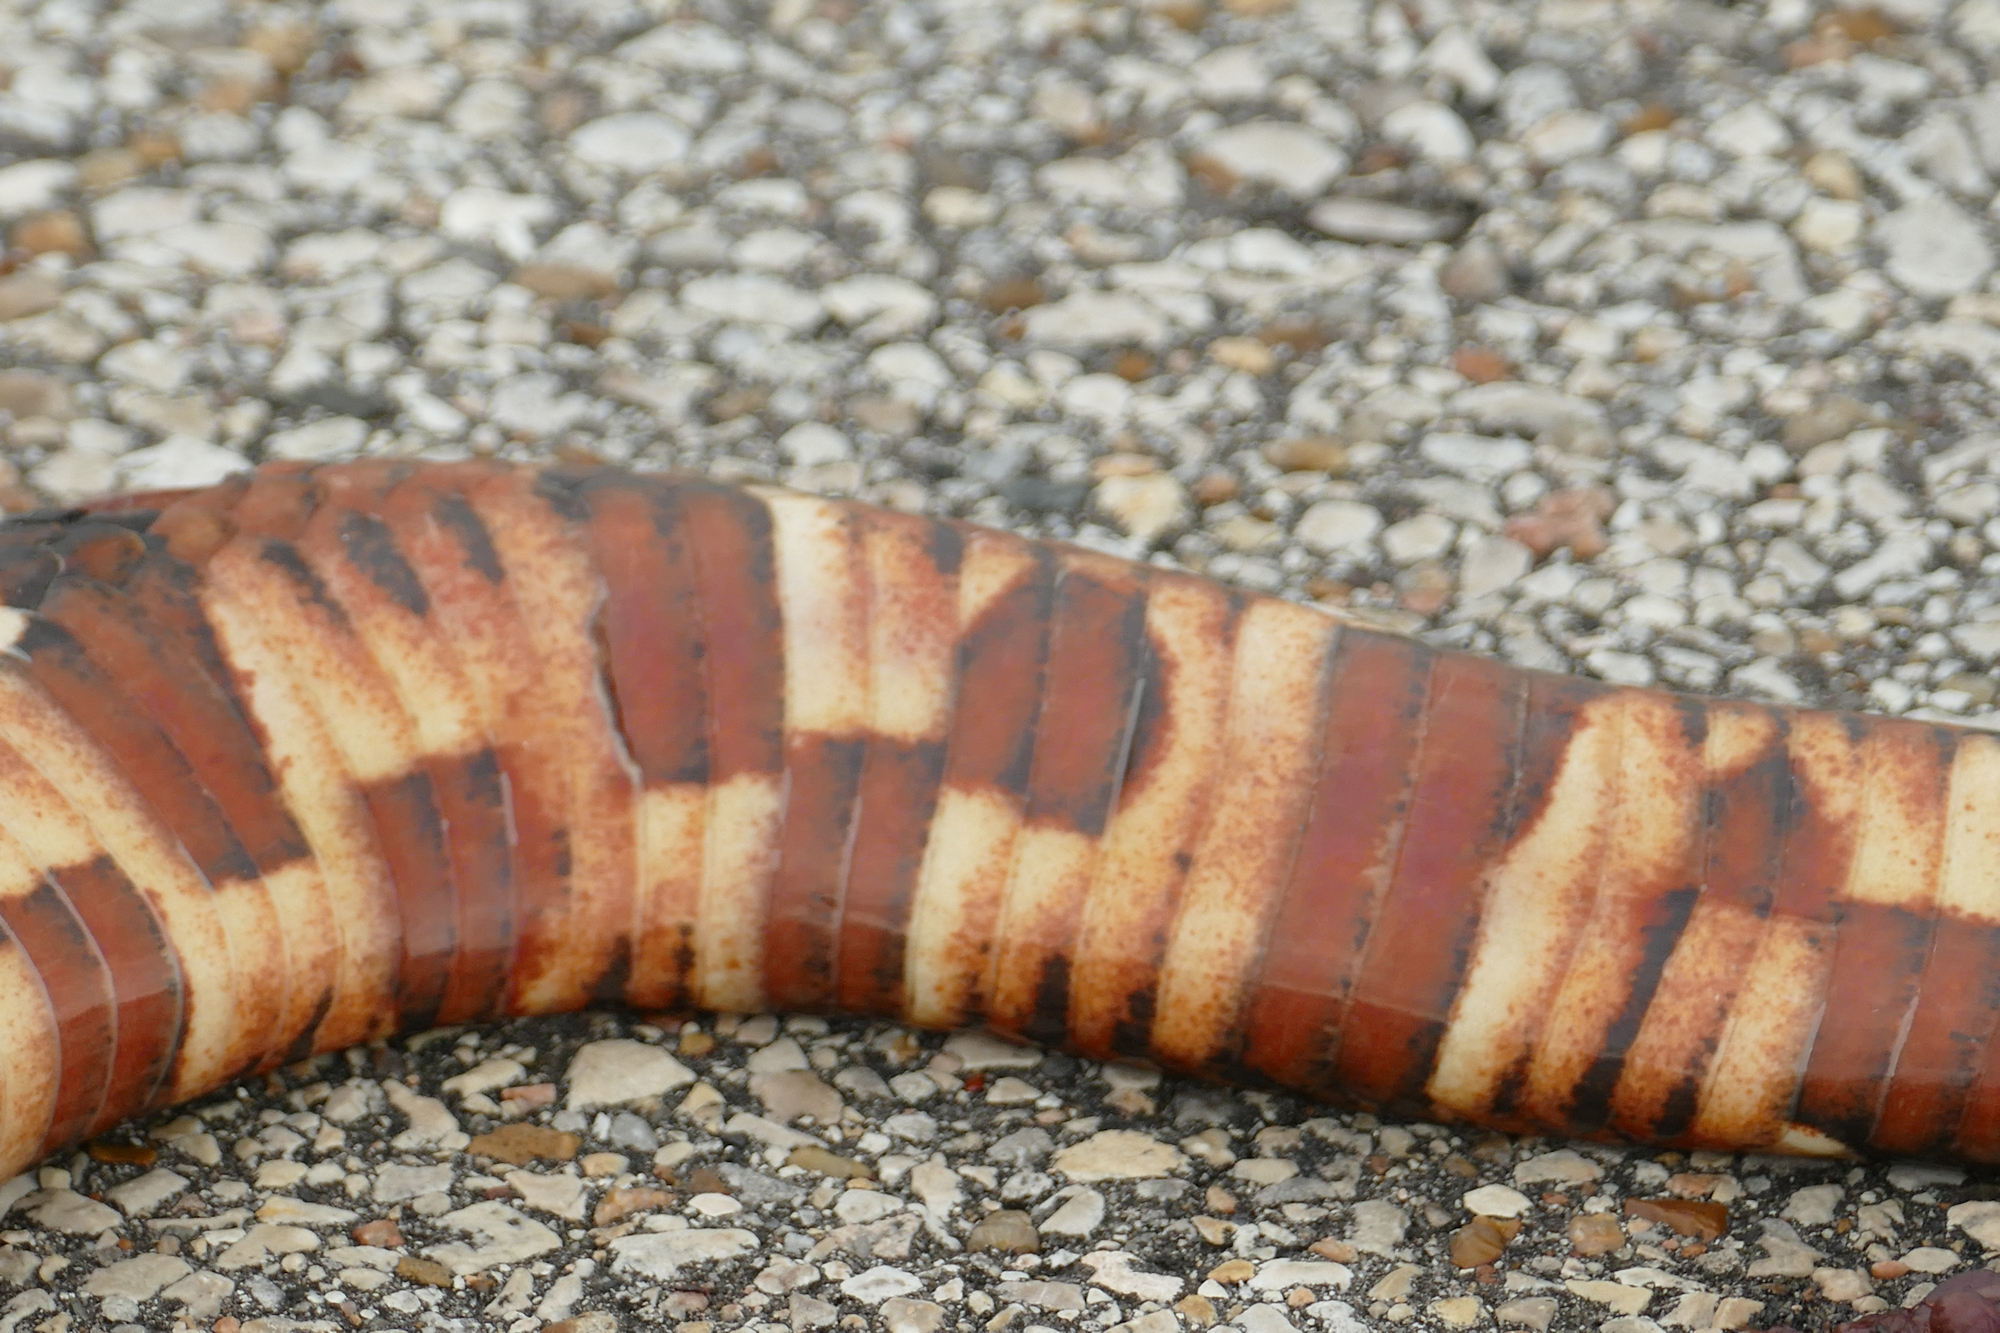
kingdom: Animalia
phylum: Chordata
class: Squamata
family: Colubridae
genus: Nerodia
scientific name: Nerodia fasciata
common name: Southern water snake
